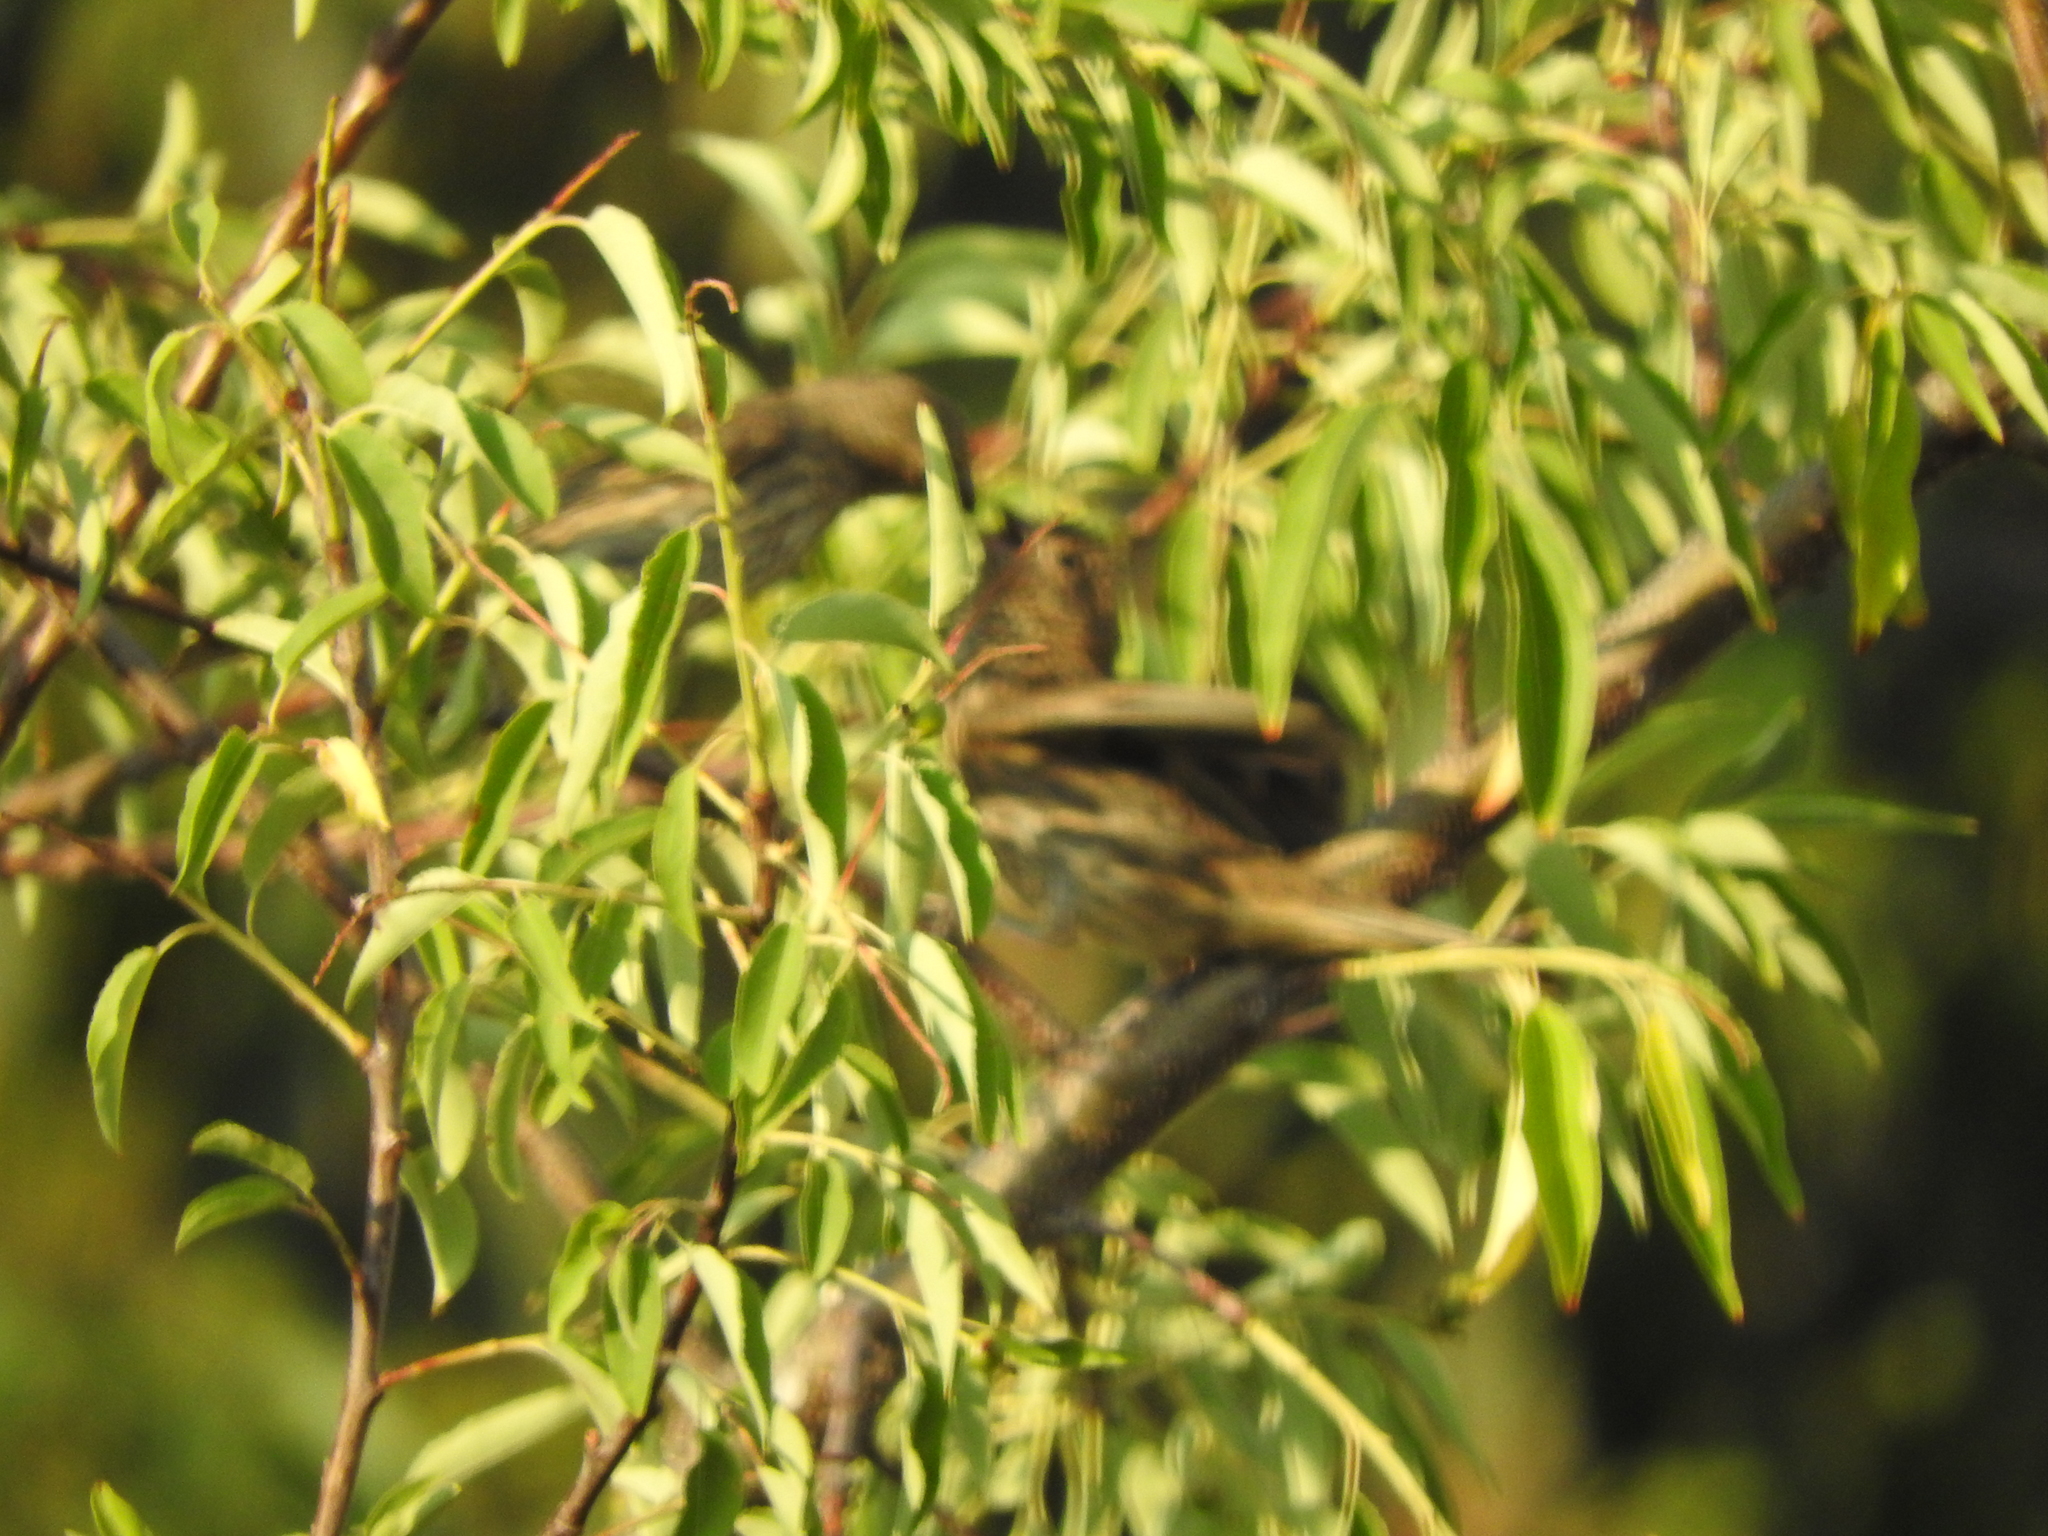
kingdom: Animalia
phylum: Chordata
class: Aves
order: Passeriformes
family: Fringillidae
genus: Haemorhous
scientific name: Haemorhous mexicanus
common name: House finch
